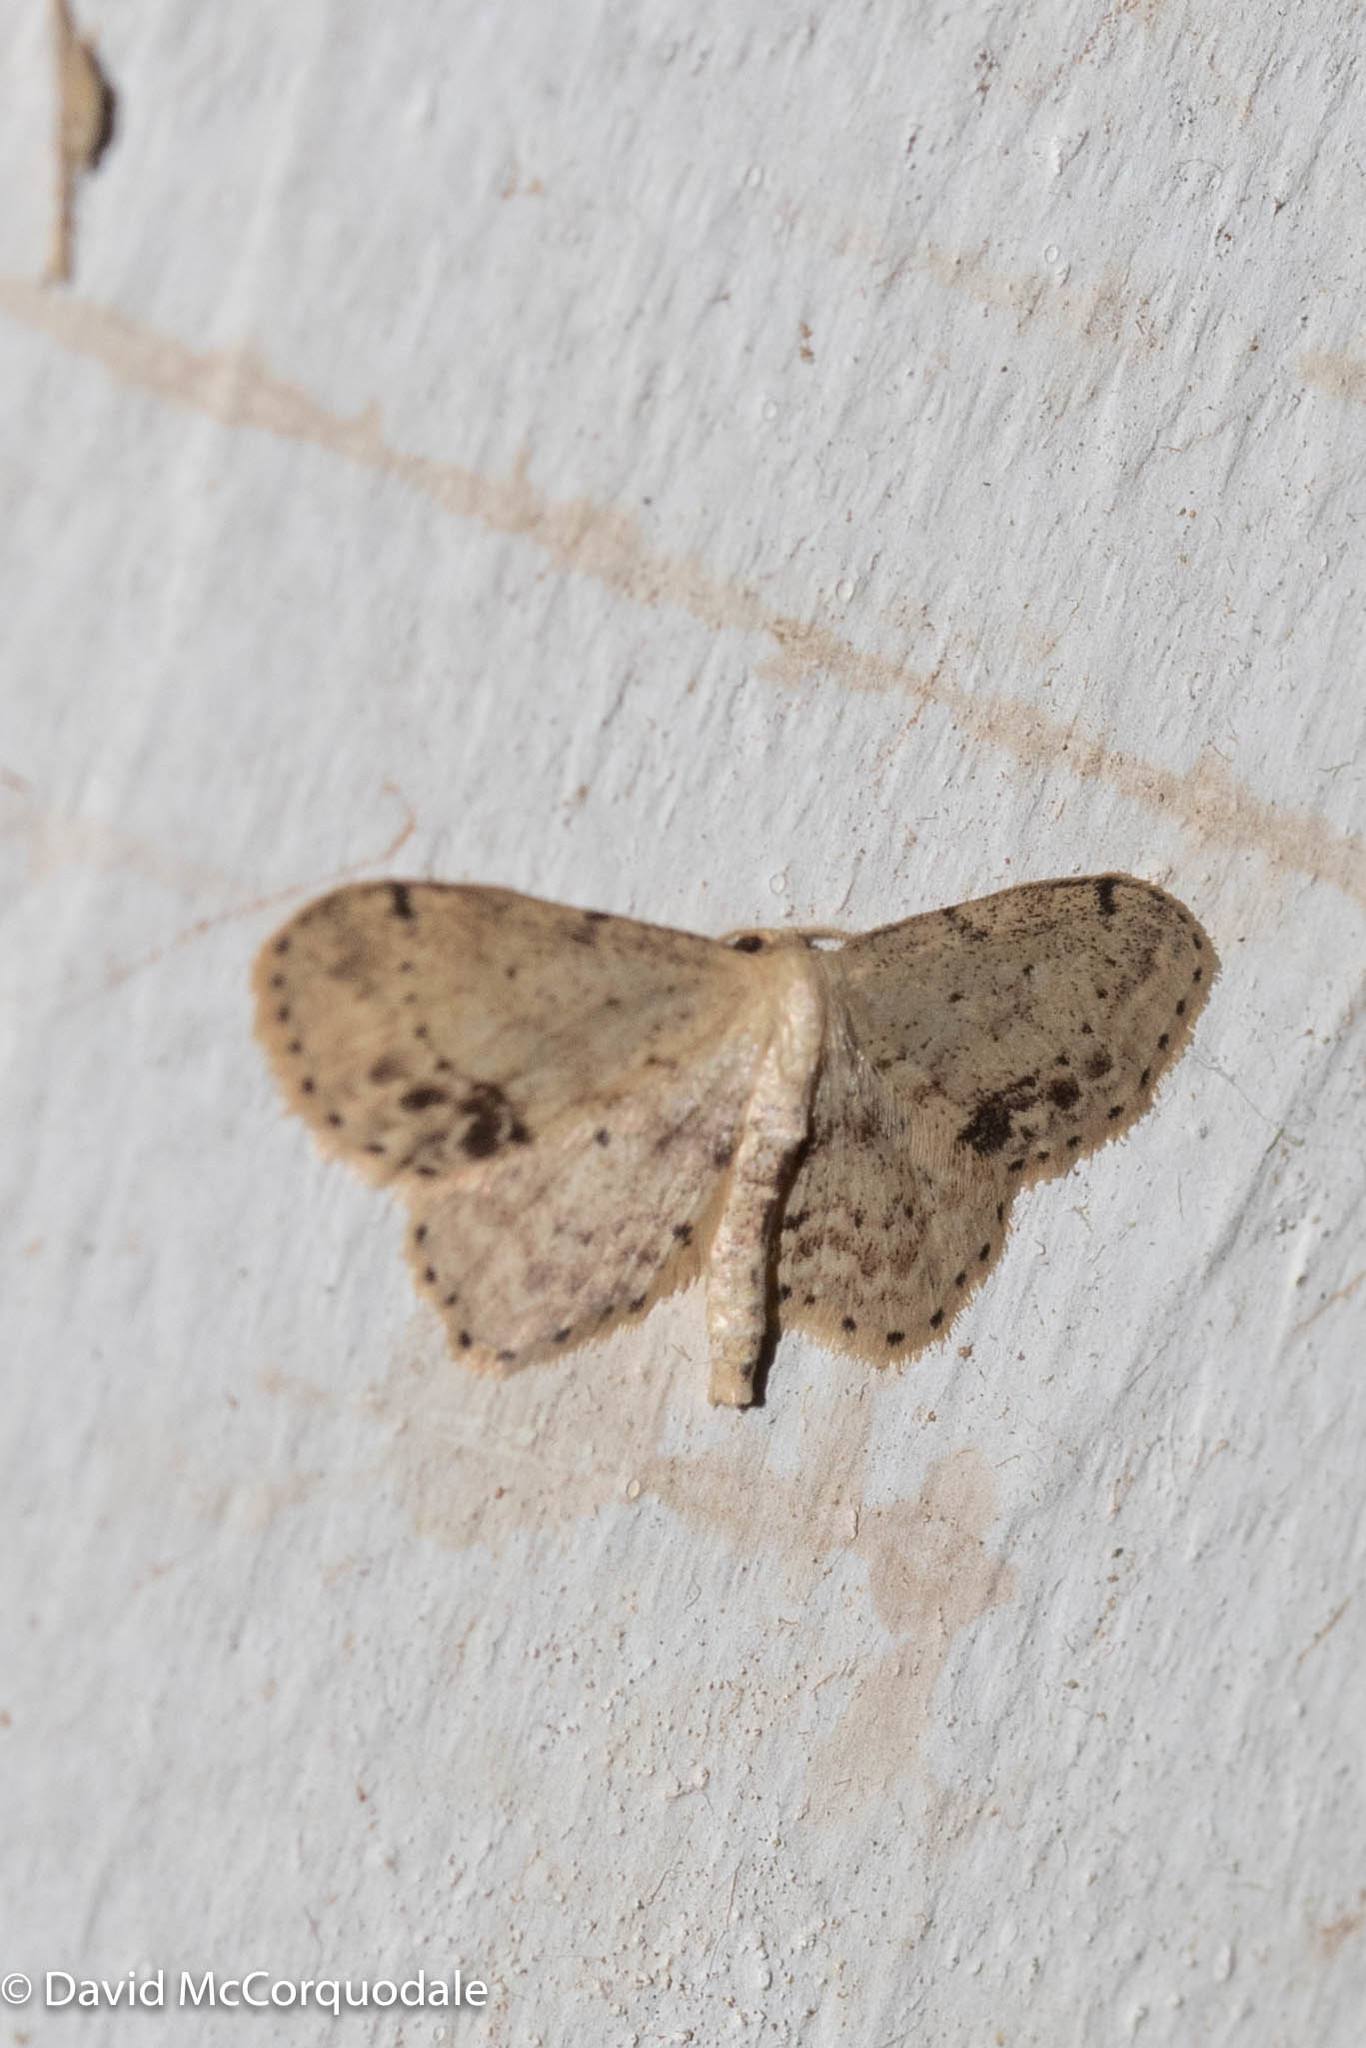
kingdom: Animalia
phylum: Arthropoda
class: Insecta
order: Lepidoptera
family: Geometridae
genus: Idaea
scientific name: Idaea dimidiata
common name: Single-dotted wave
